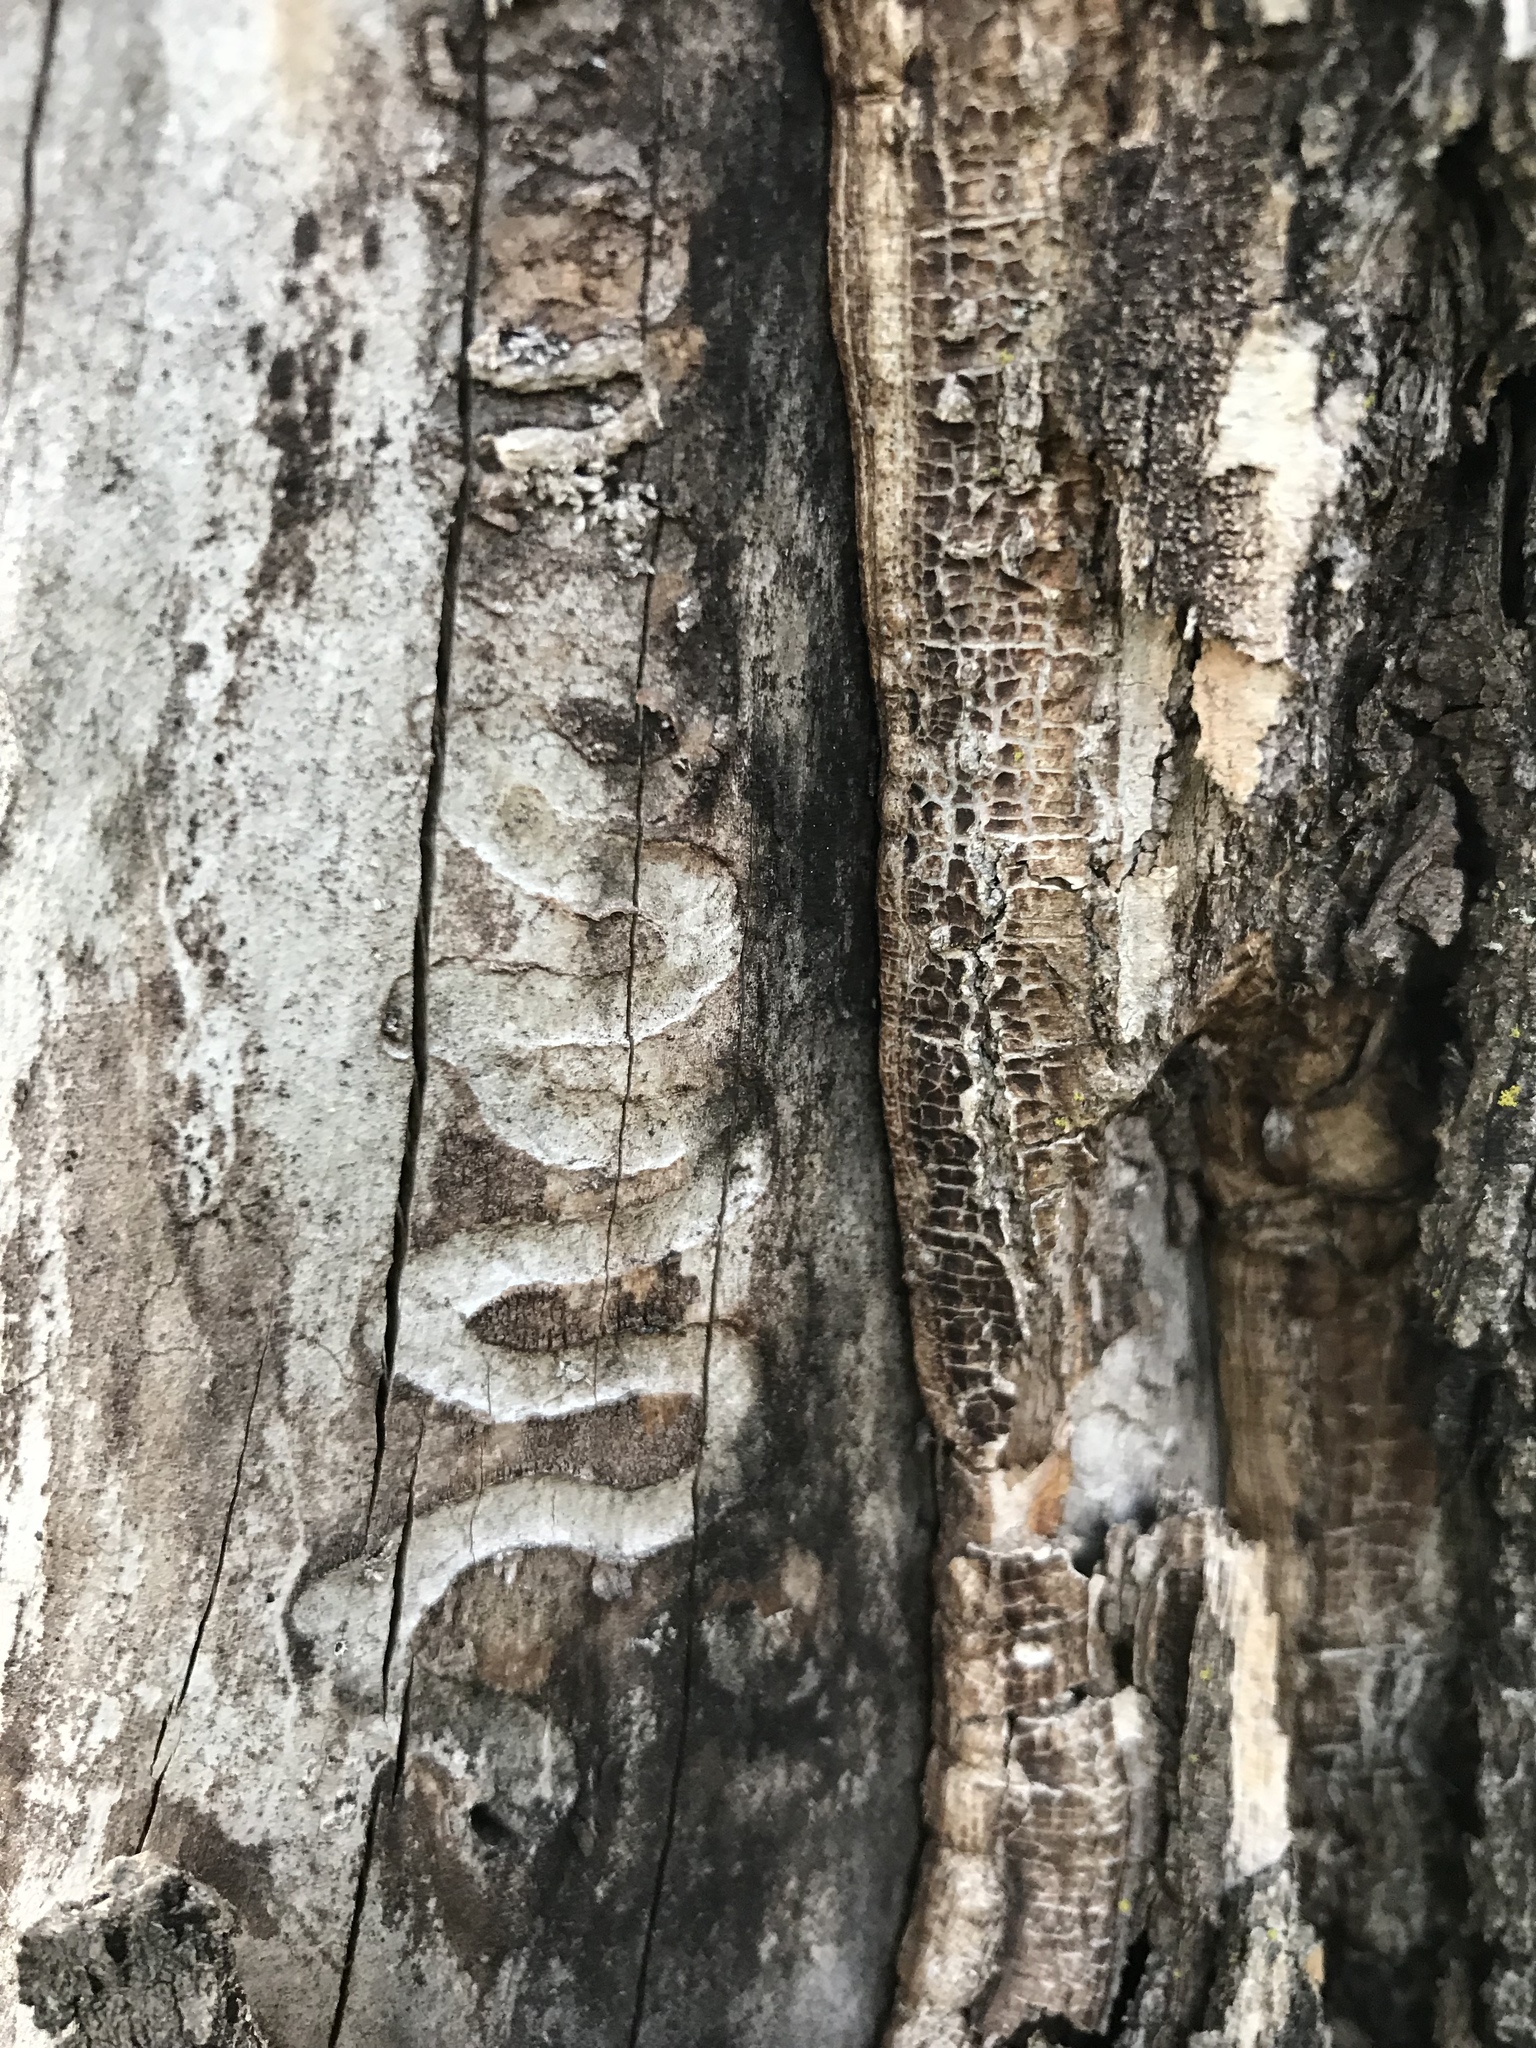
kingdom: Animalia
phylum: Arthropoda
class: Insecta
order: Coleoptera
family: Buprestidae
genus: Agrilus
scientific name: Agrilus planipennis
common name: Emerald ash borer
